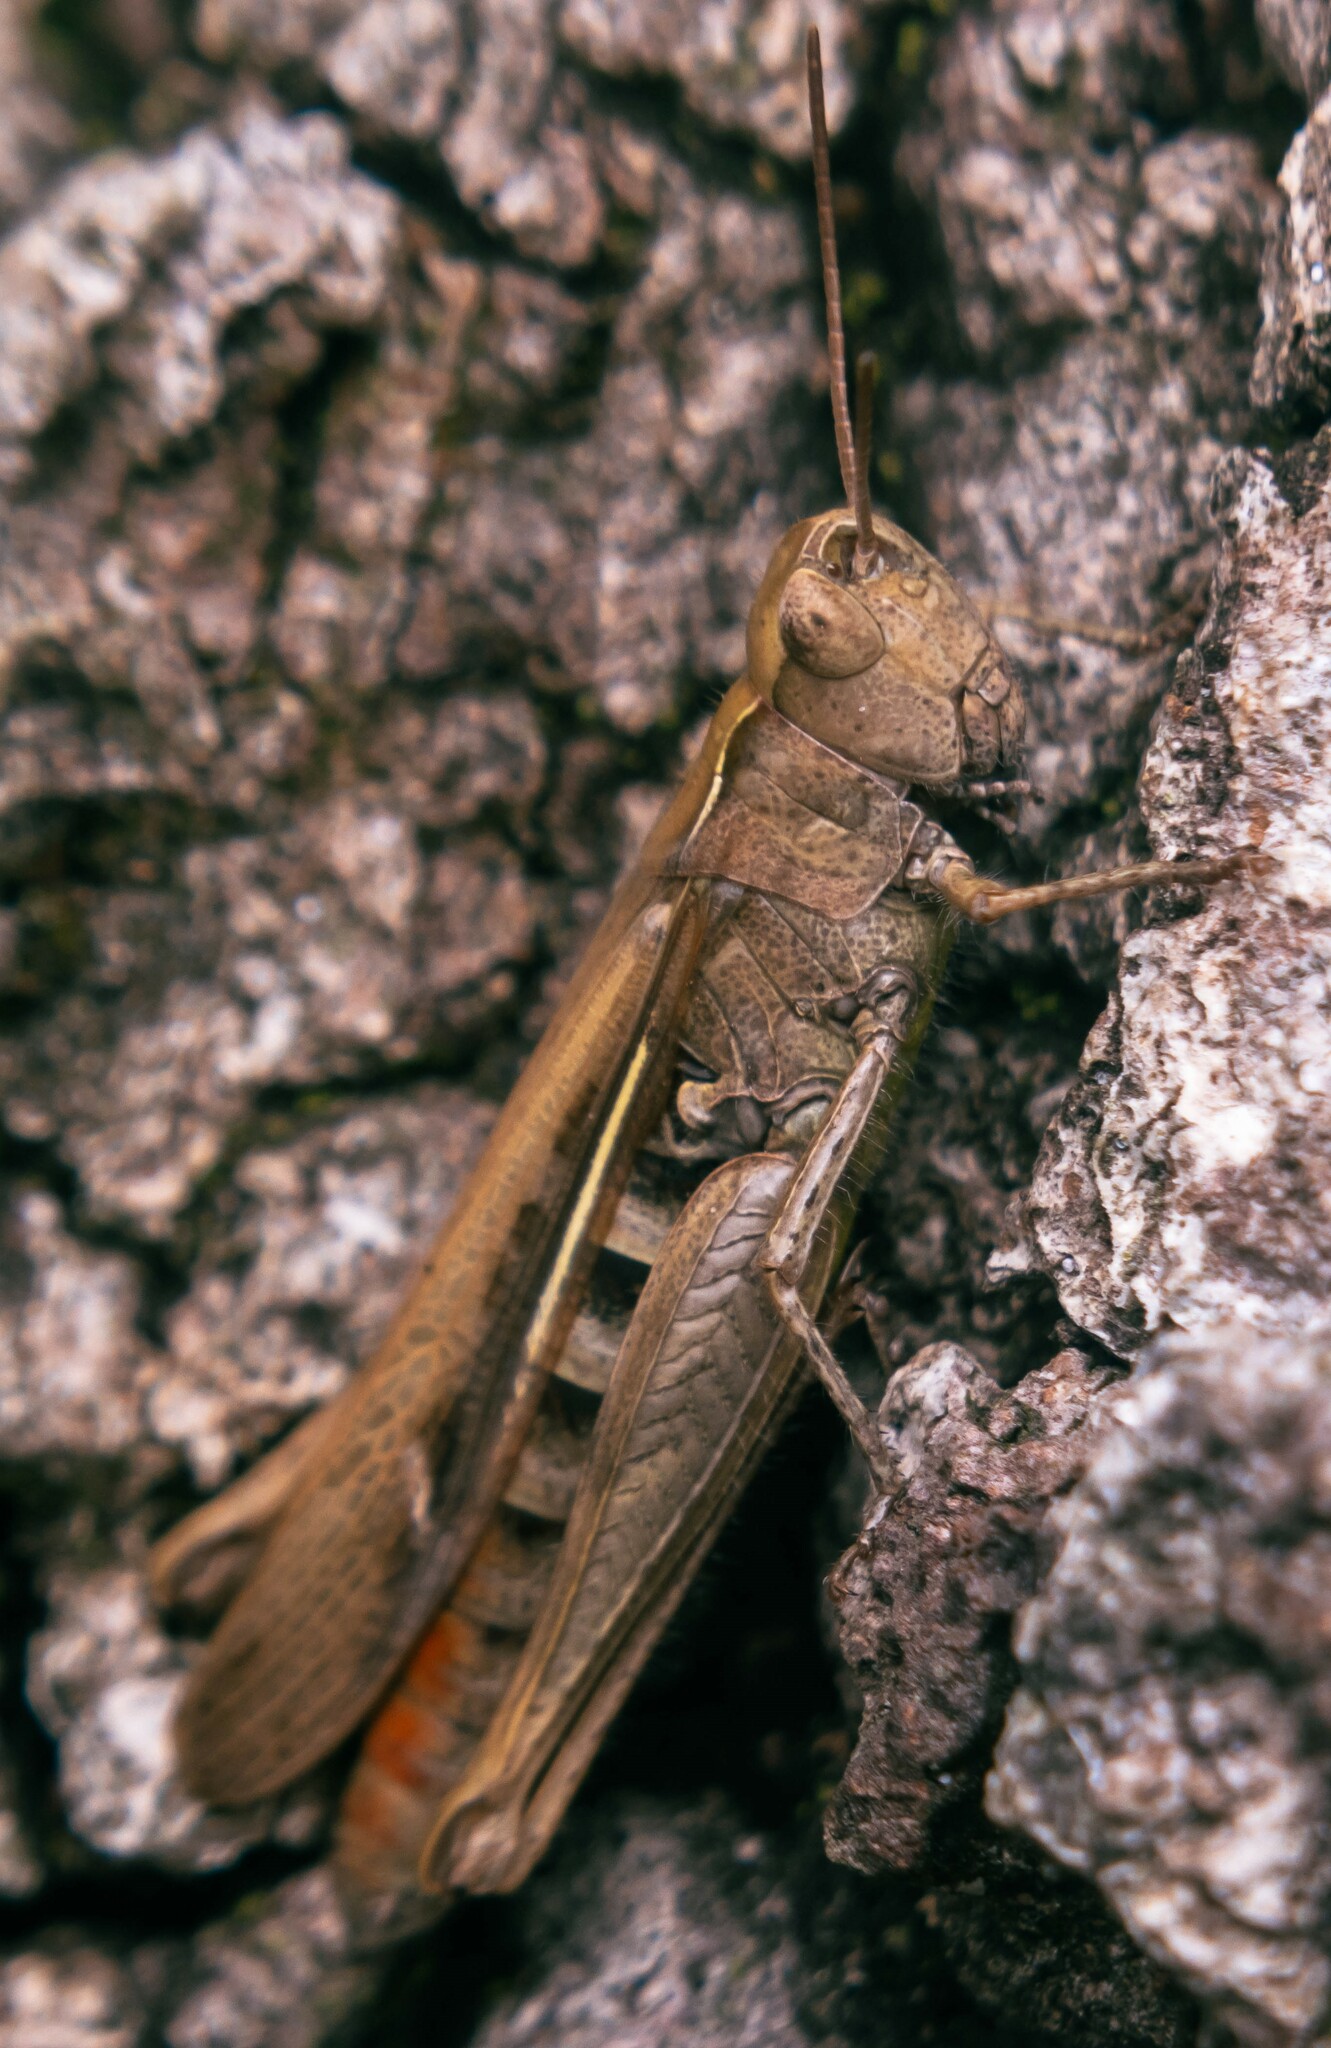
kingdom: Animalia
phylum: Arthropoda
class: Insecta
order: Orthoptera
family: Acrididae
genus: Chorthippus
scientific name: Chorthippus brunneus
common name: Field grasshopper
